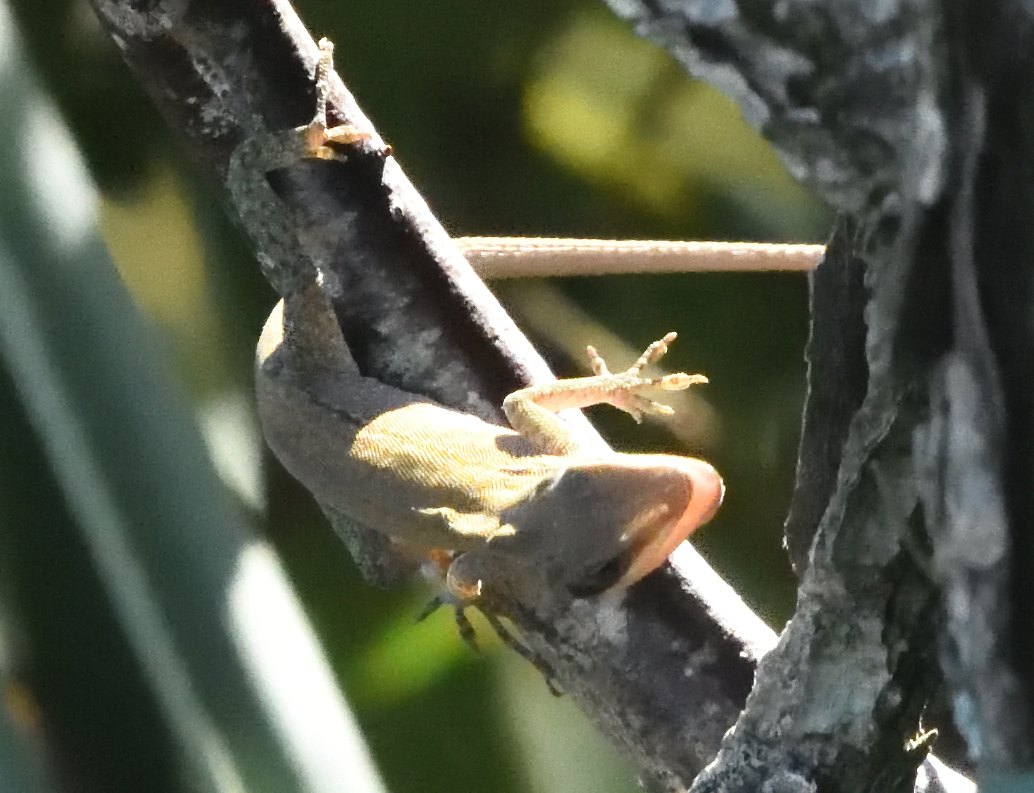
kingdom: Animalia
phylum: Chordata
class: Squamata
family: Dactyloidae
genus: Anolis
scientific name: Anolis carolinensis
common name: Green anole
